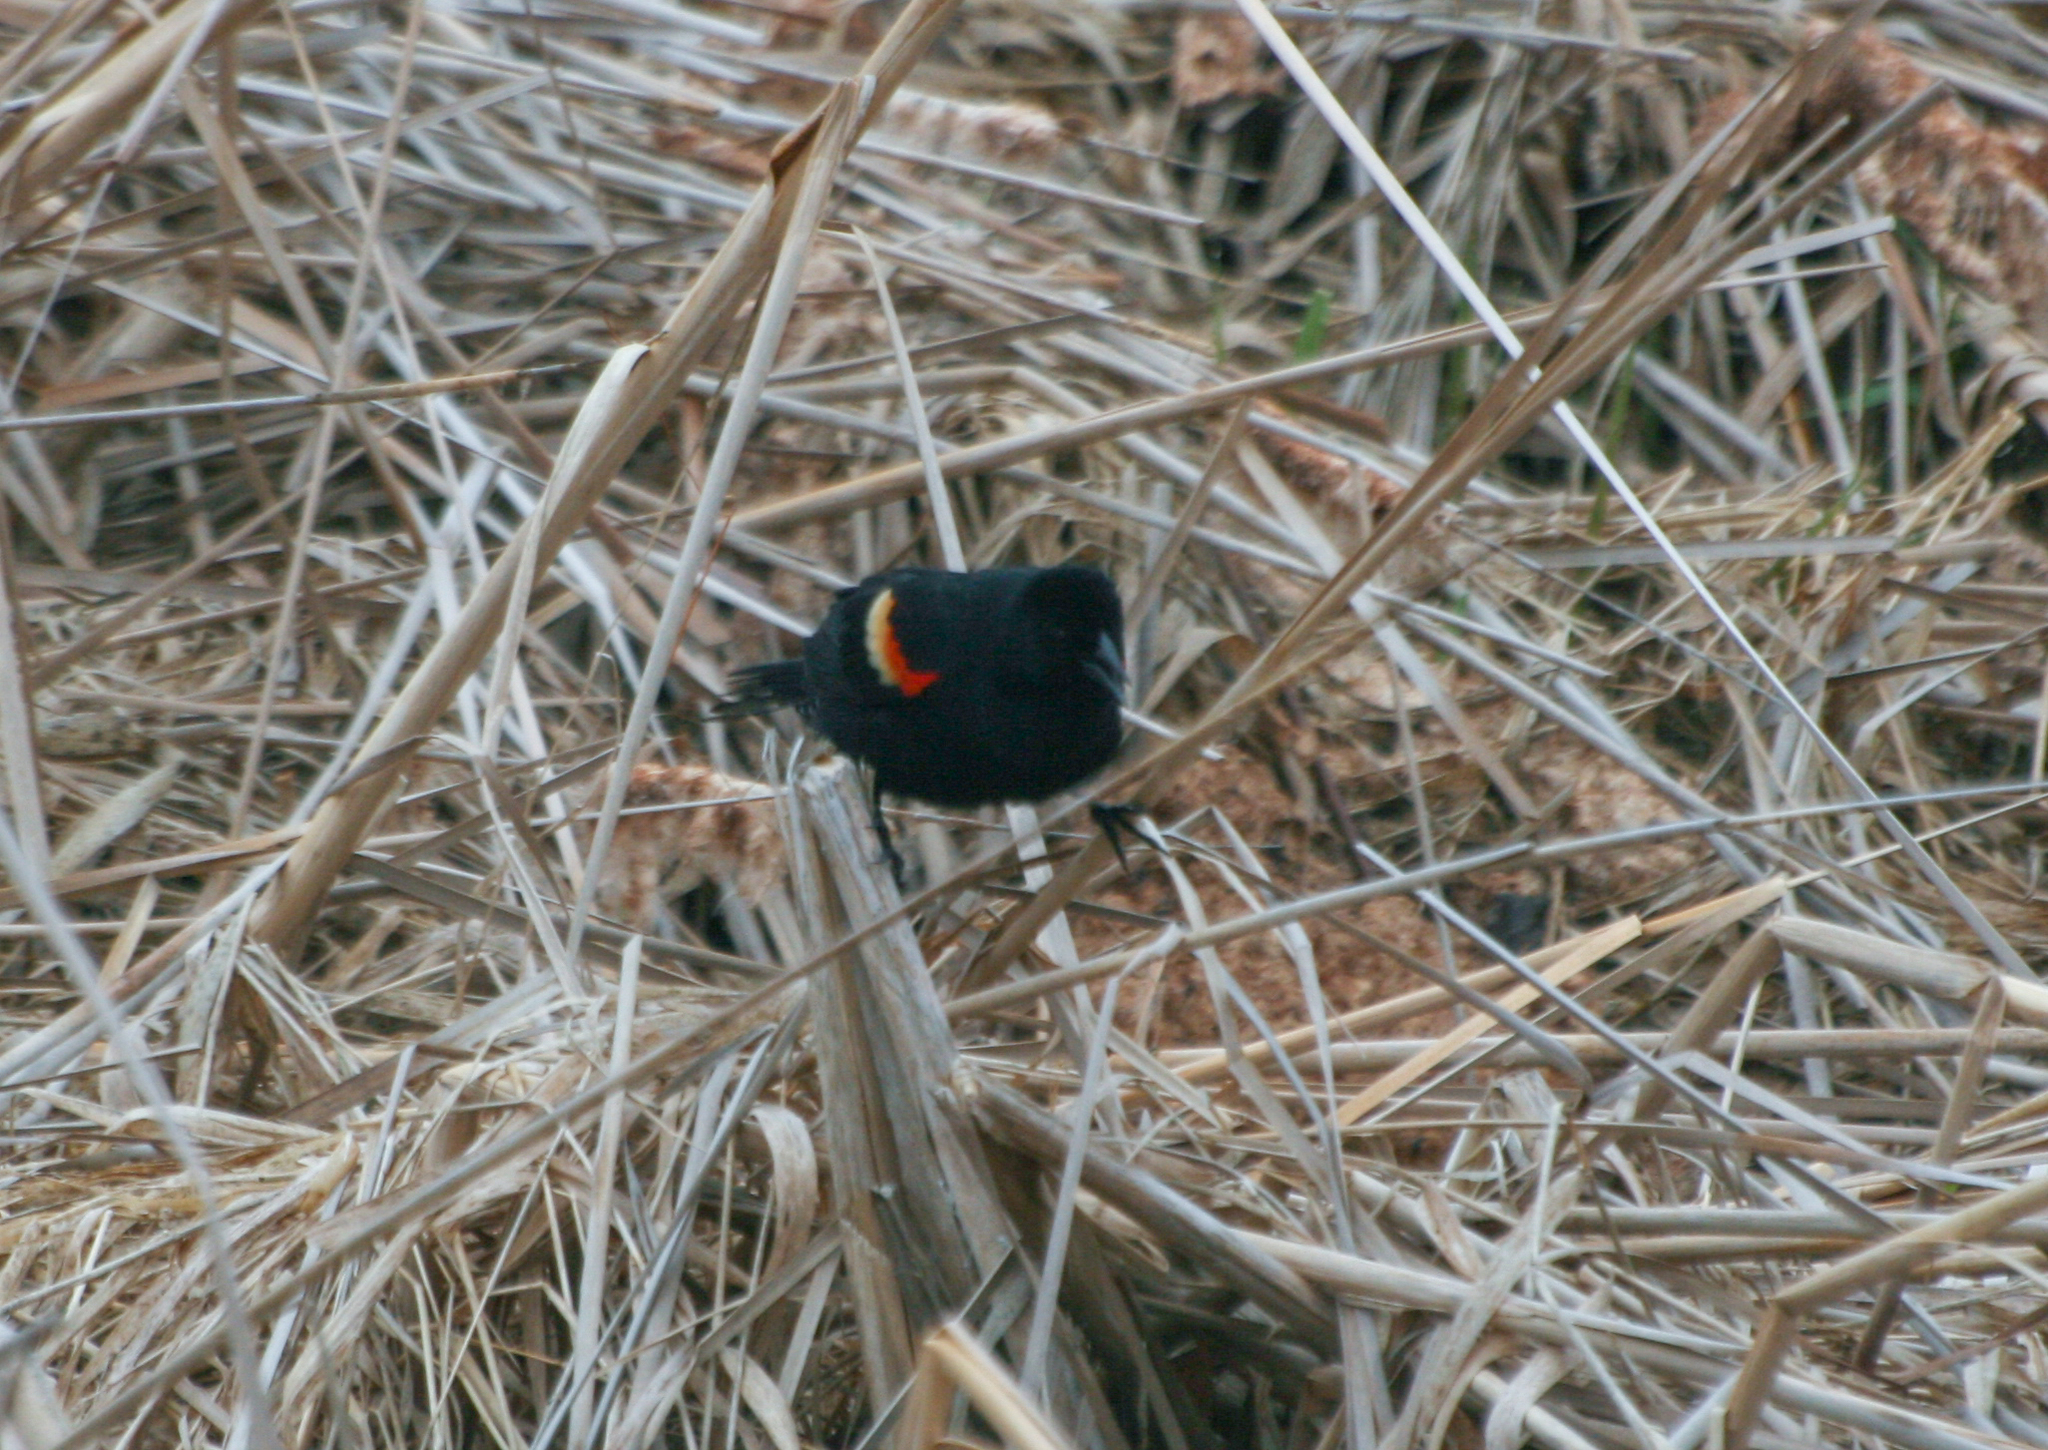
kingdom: Animalia
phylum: Chordata
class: Aves
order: Passeriformes
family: Icteridae
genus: Agelaius
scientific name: Agelaius phoeniceus
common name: Red-winged blackbird
